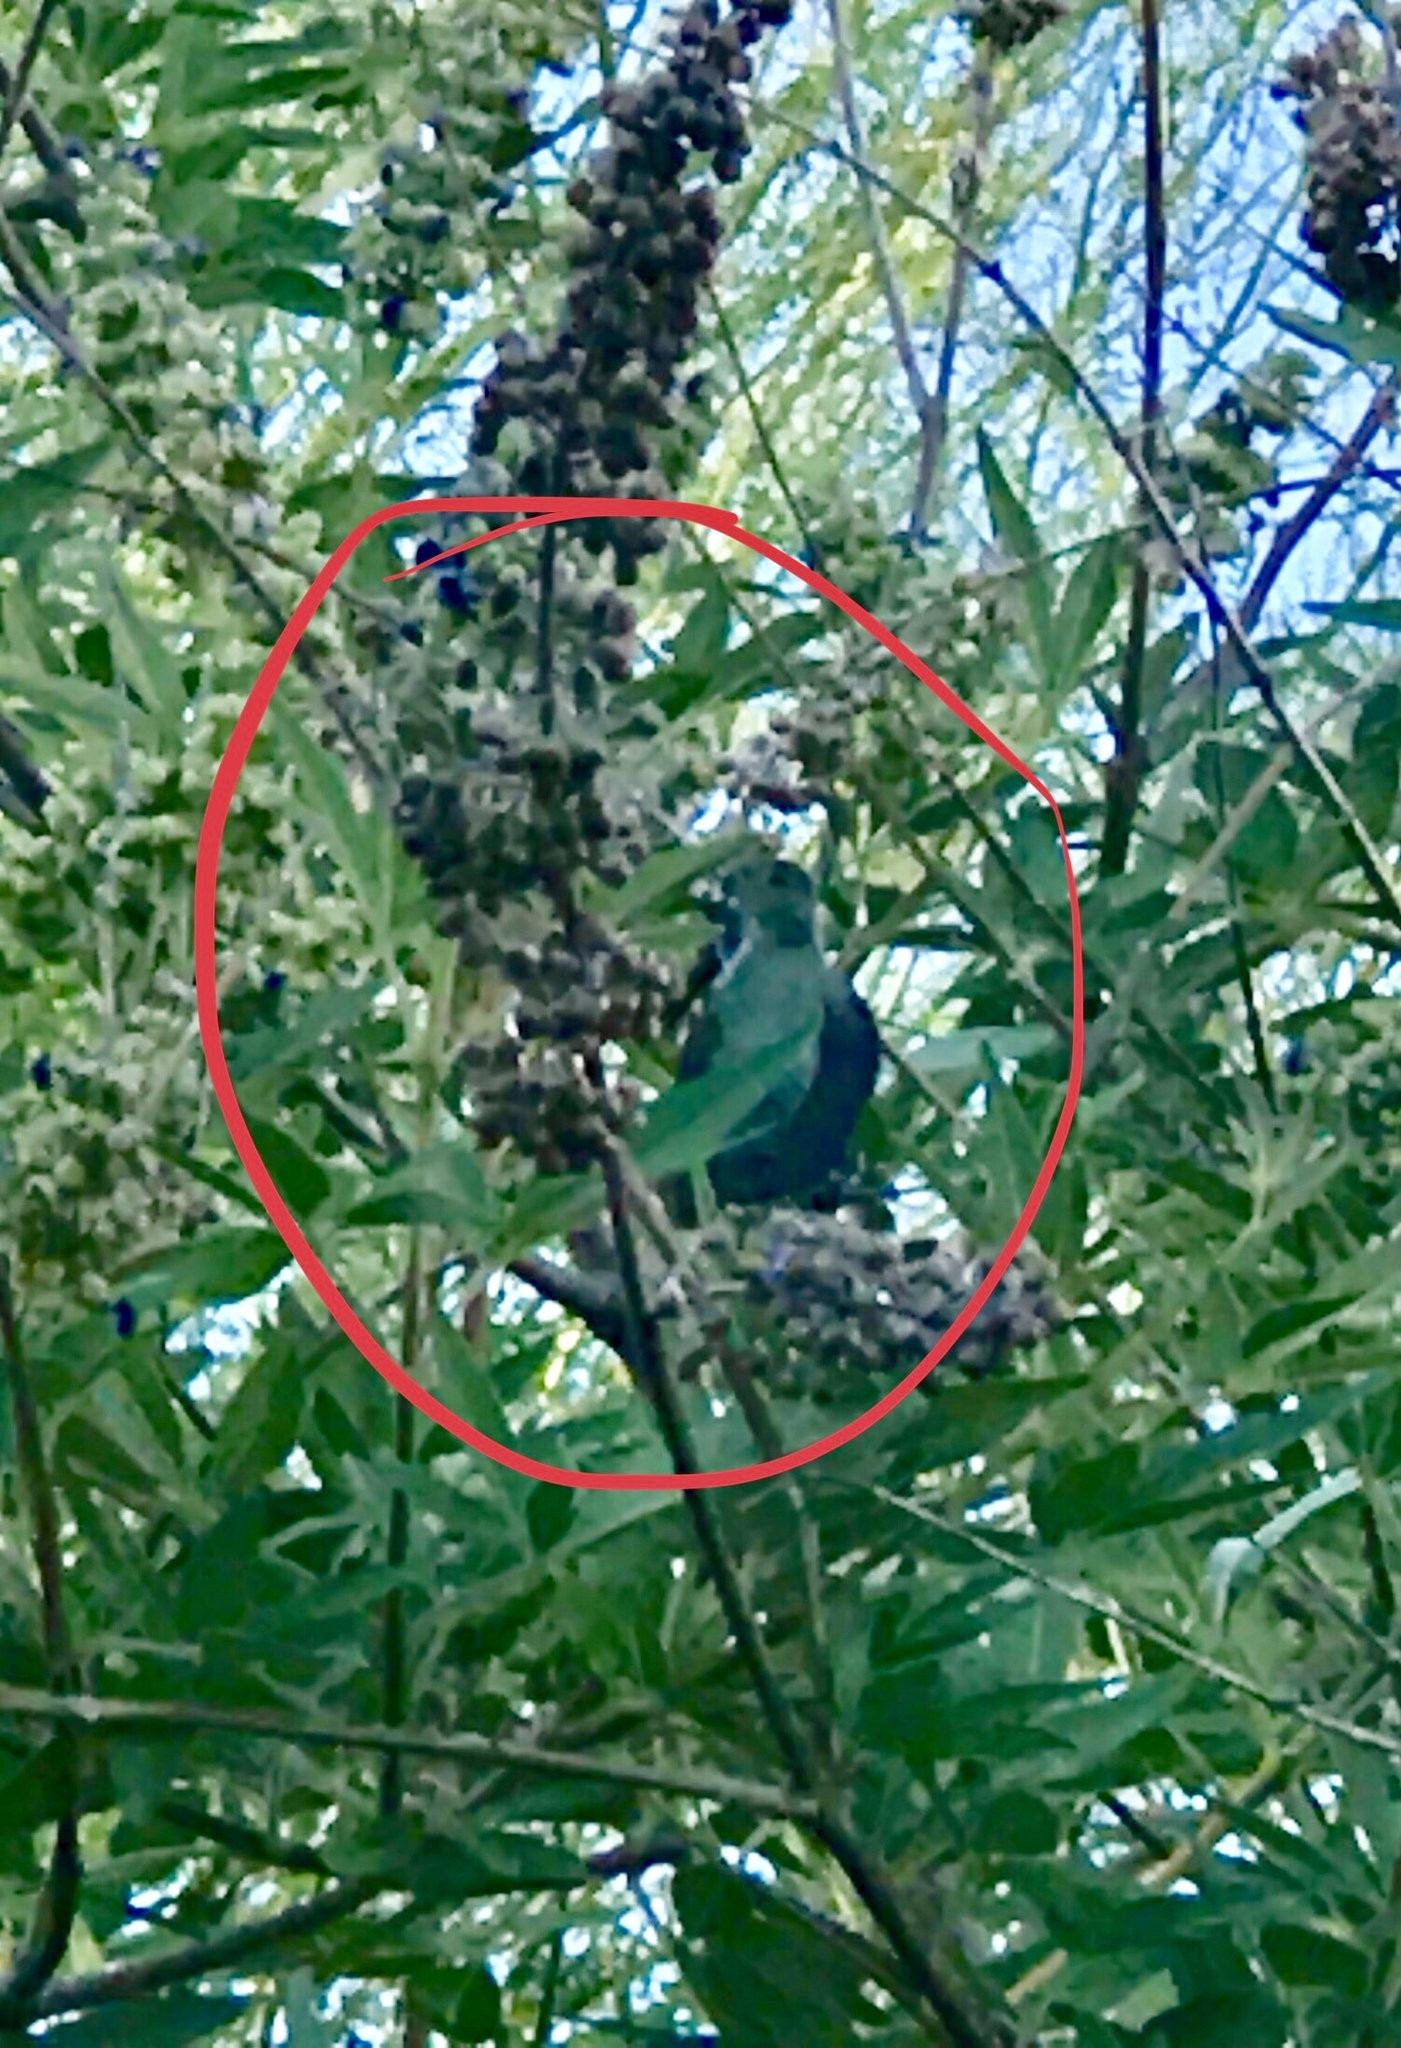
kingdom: Animalia
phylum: Chordata
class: Aves
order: Apodiformes
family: Trochilidae
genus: Calypte
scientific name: Calypte anna
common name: Anna's hummingbird
